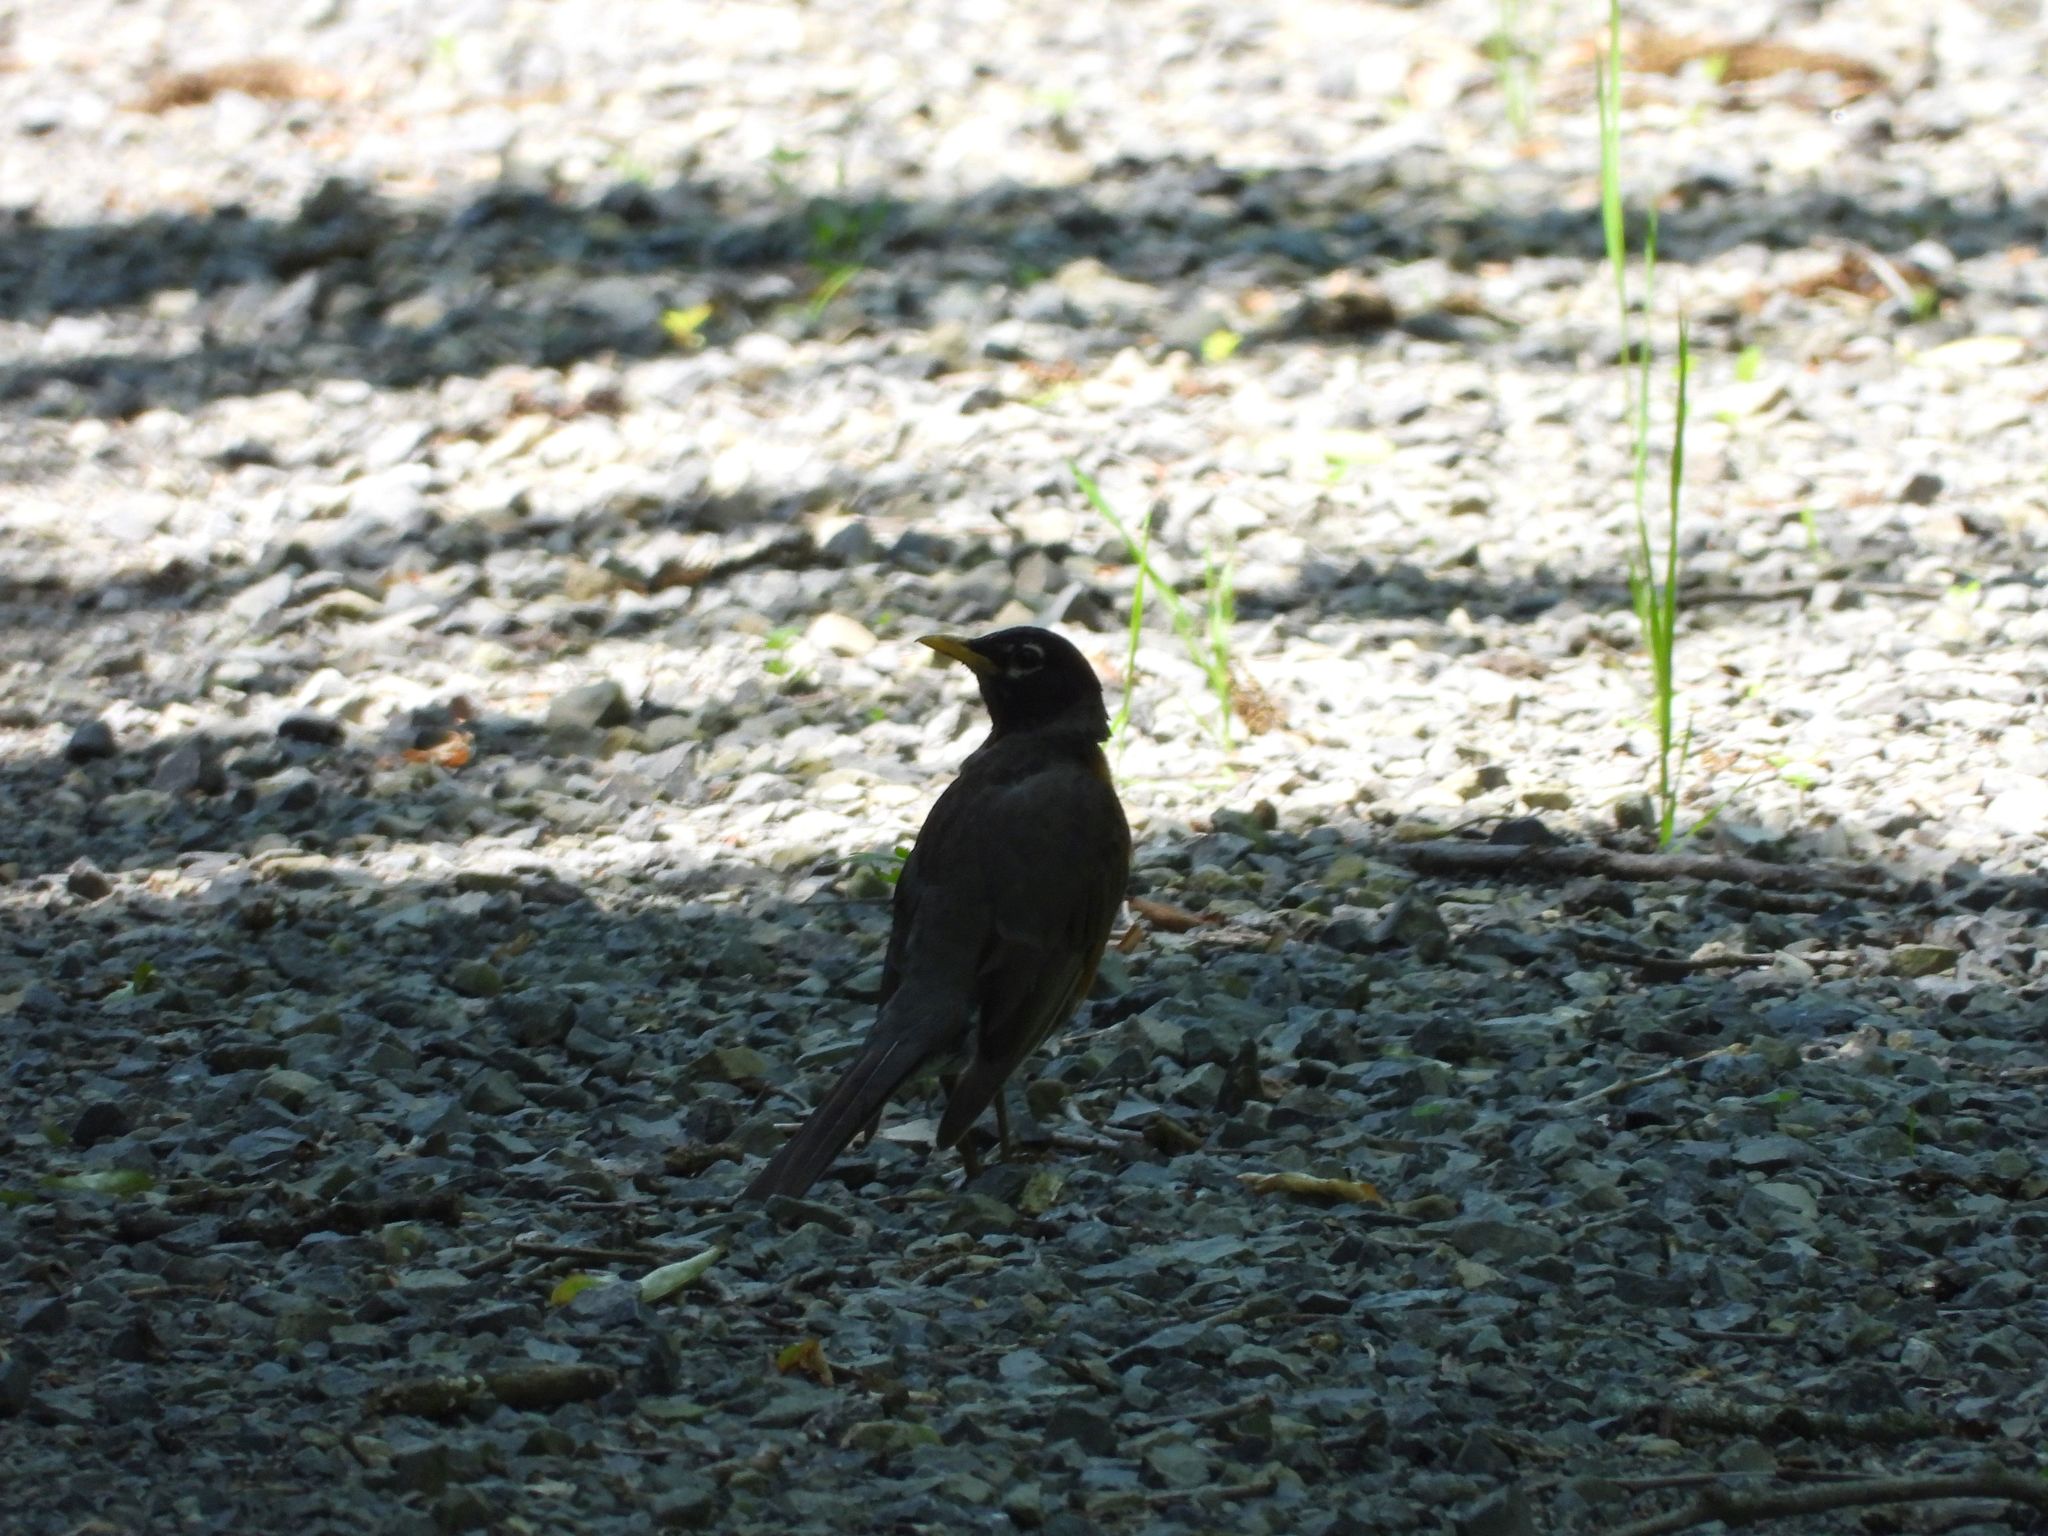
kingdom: Animalia
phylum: Chordata
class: Aves
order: Passeriformes
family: Turdidae
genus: Turdus
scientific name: Turdus migratorius
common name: American robin
